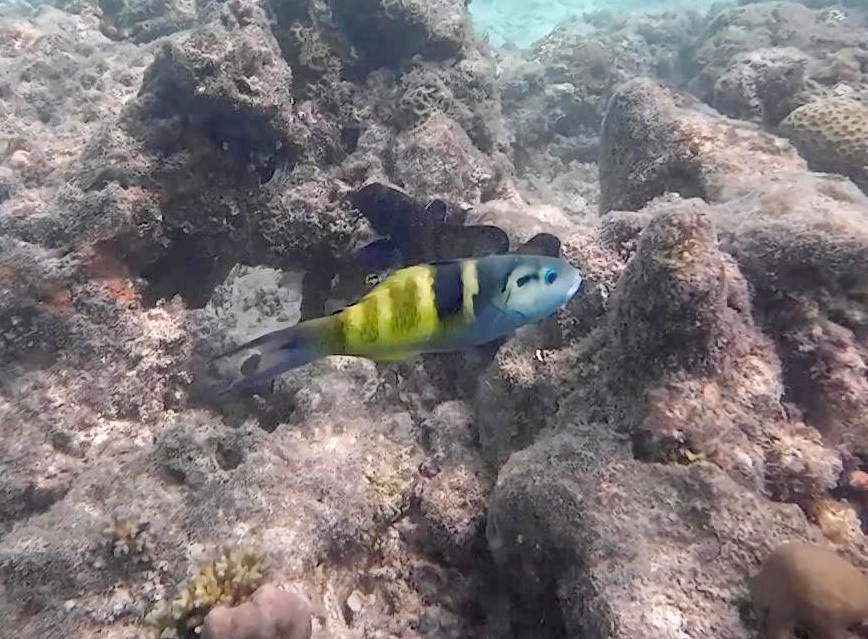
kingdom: Animalia
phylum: Chordata
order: Perciformes
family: Labridae
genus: Thalassoma
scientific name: Thalassoma jansenii
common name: Jansen's wrasse
